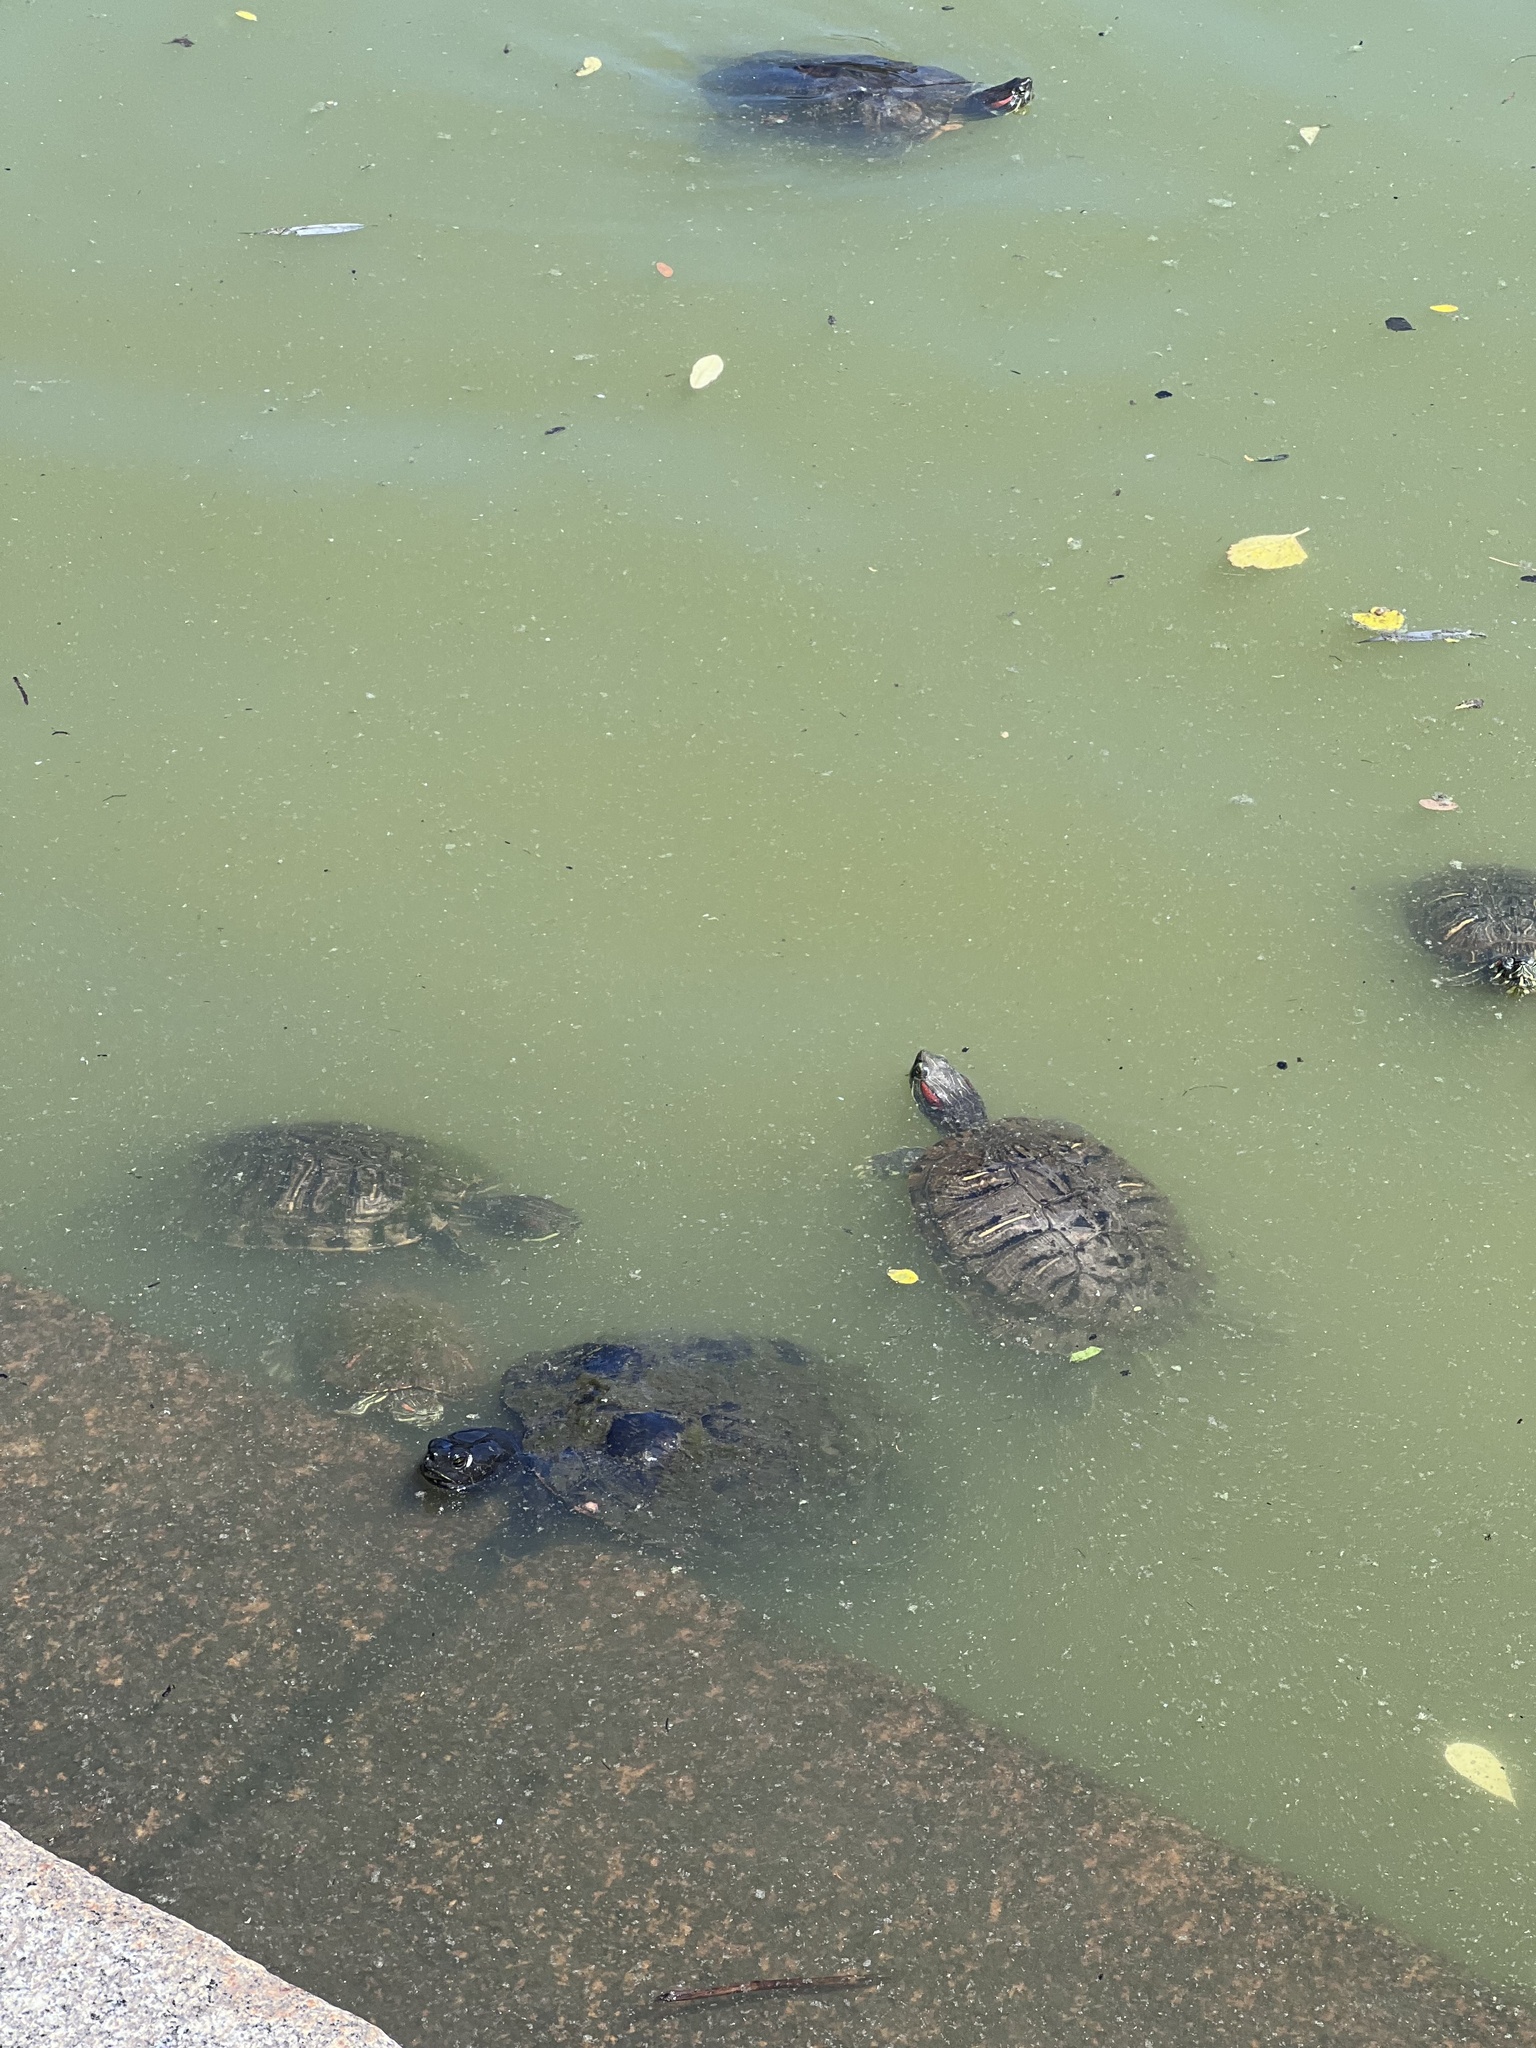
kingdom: Animalia
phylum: Chordata
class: Testudines
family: Emydidae
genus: Trachemys
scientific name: Trachemys scripta
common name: Slider
